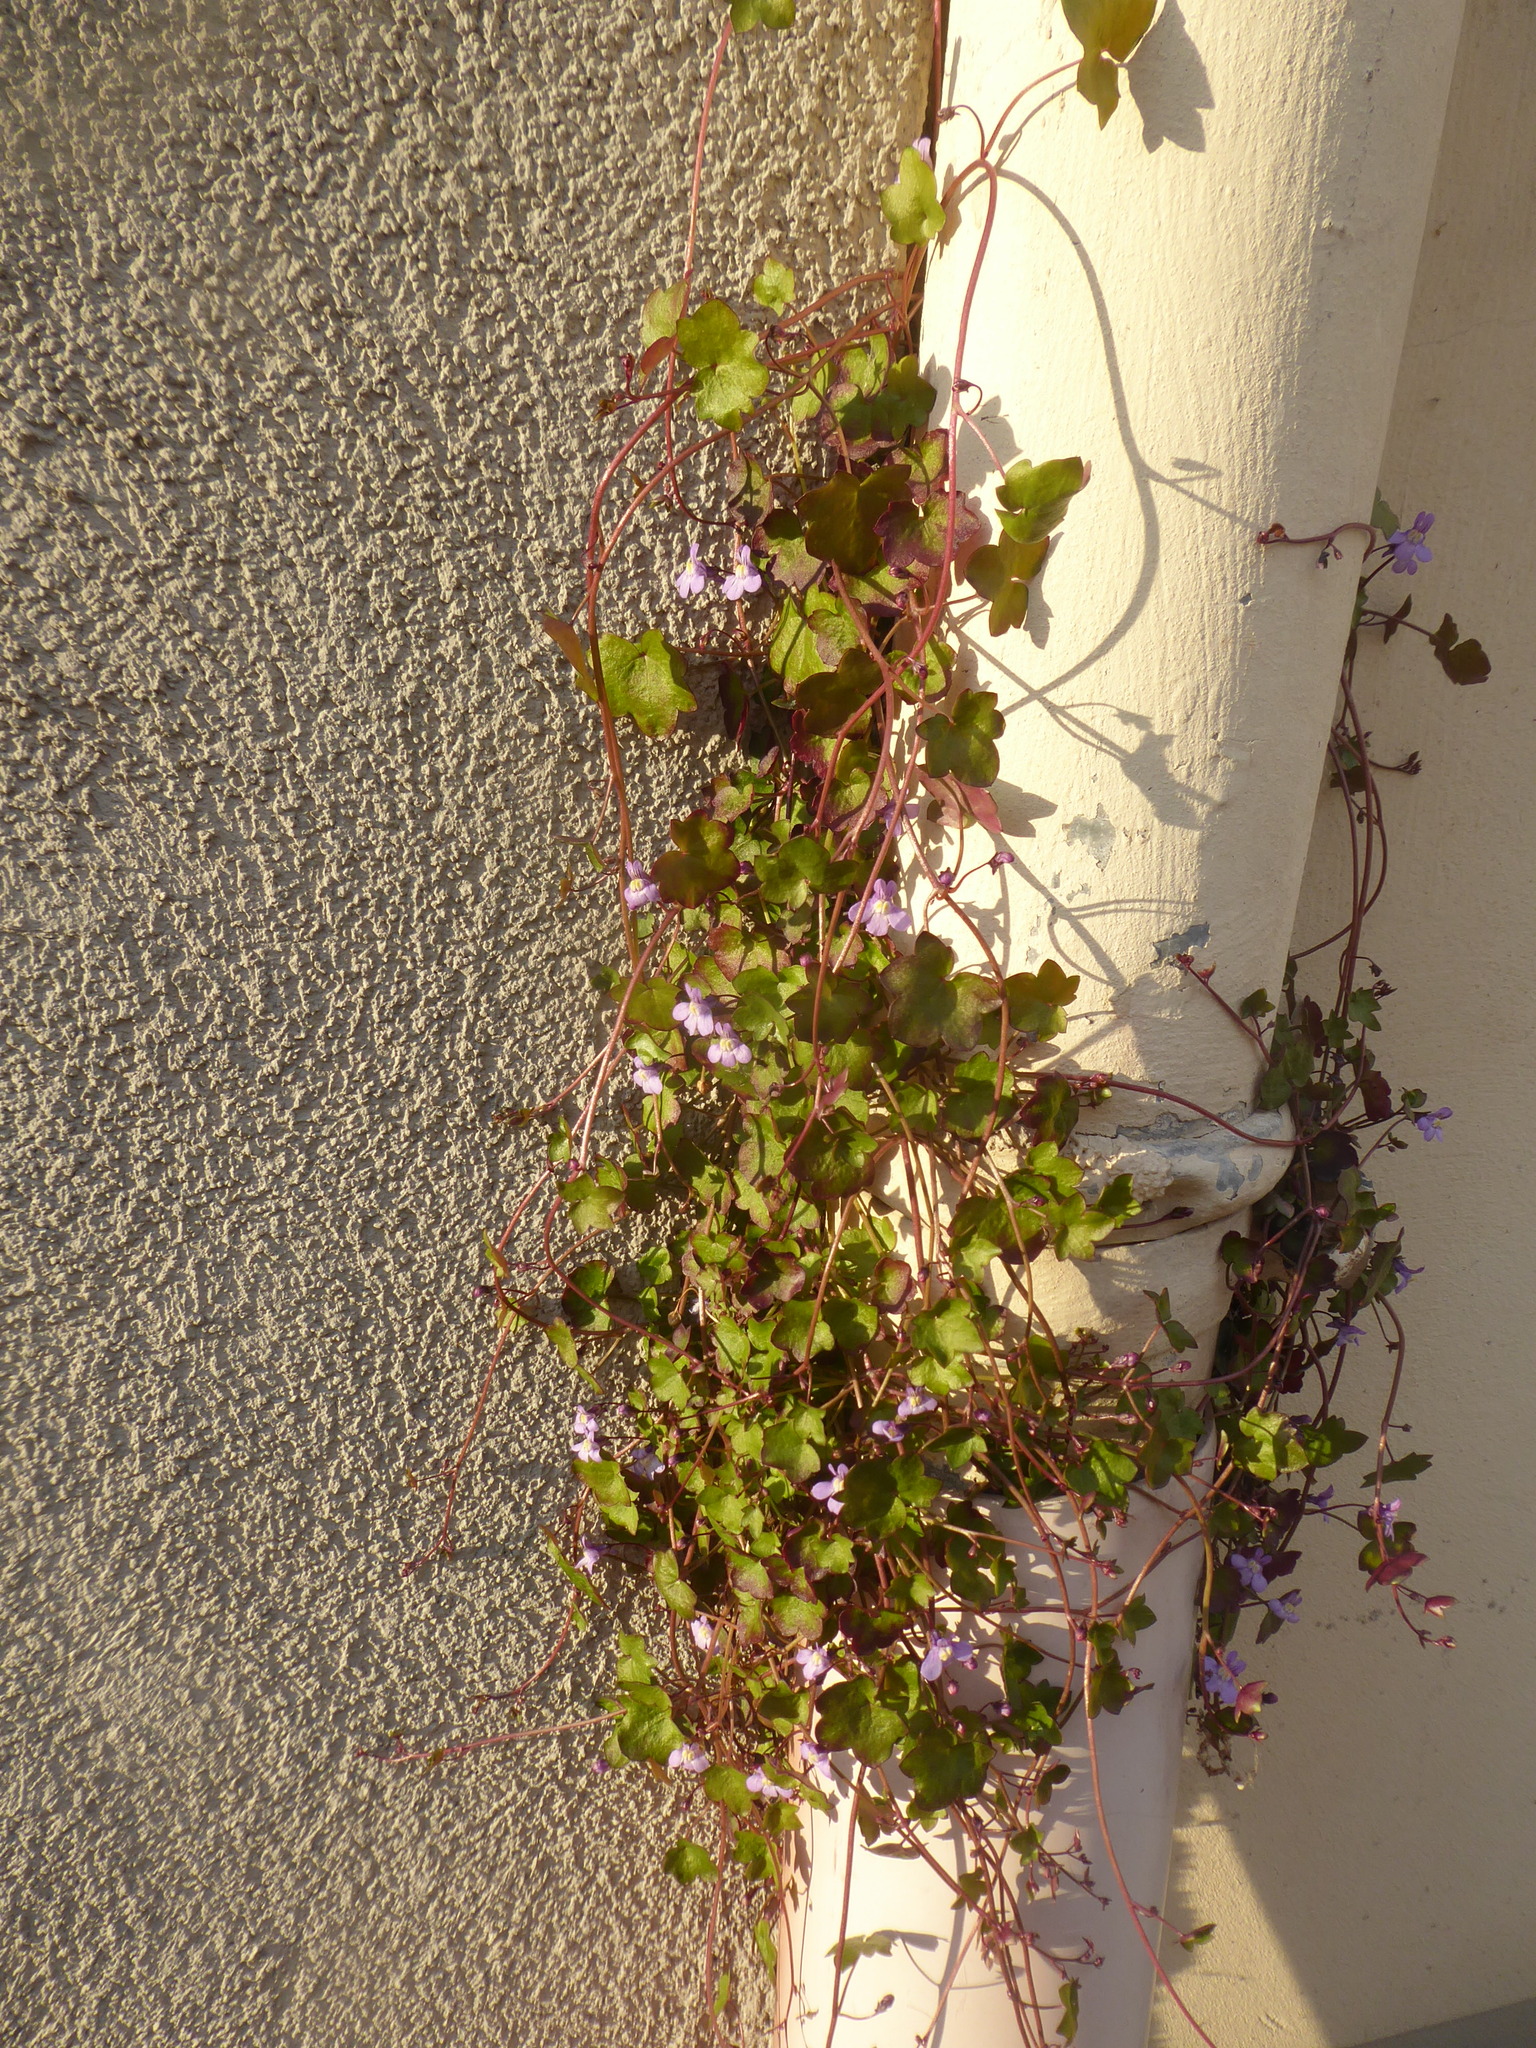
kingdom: Plantae
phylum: Tracheophyta
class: Magnoliopsida
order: Lamiales
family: Plantaginaceae
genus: Cymbalaria
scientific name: Cymbalaria muralis
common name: Ivy-leaved toadflax
